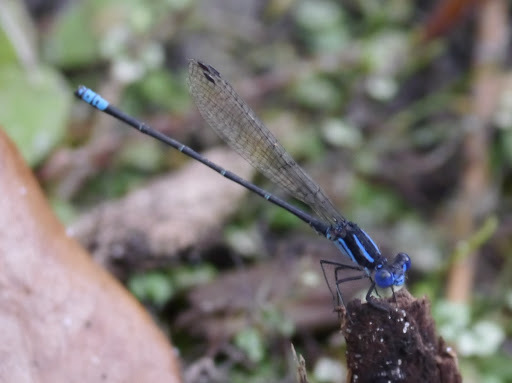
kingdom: Animalia
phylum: Arthropoda
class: Insecta
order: Odonata
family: Coenagrionidae
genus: Argia
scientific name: Argia sedula
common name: Blue-ringed dancer
